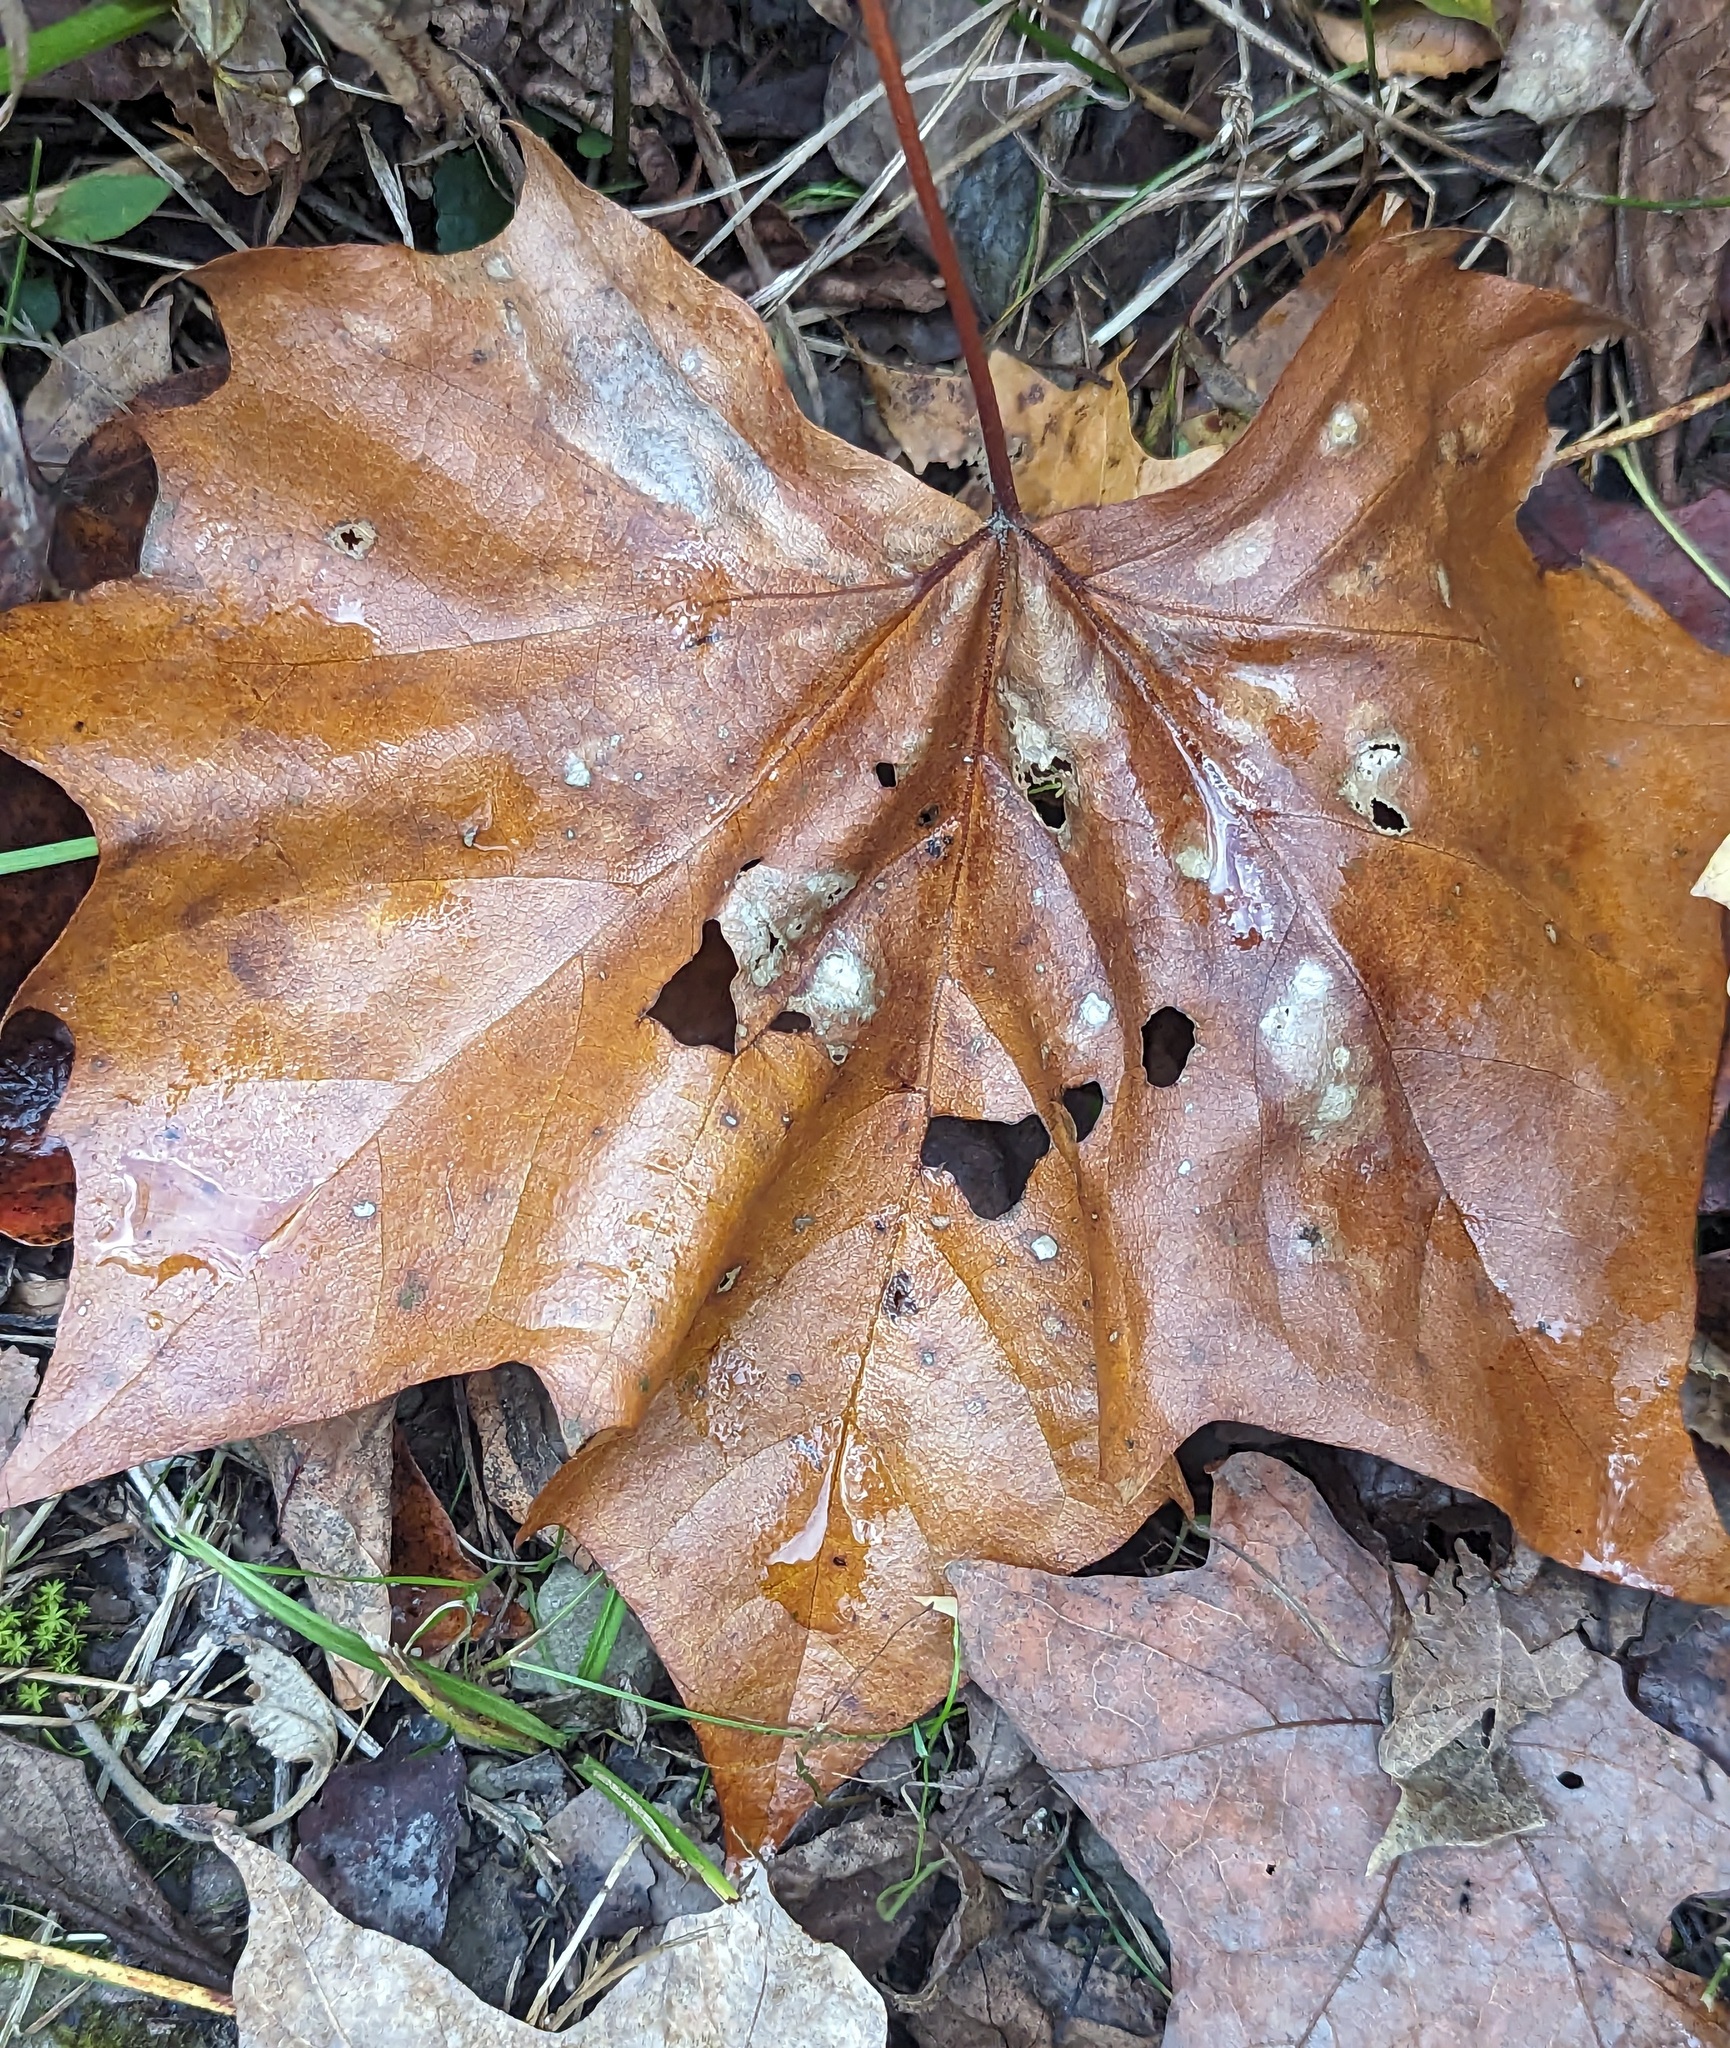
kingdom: Plantae
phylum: Tracheophyta
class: Magnoliopsida
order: Proteales
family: Platanaceae
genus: Platanus
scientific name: Platanus occidentalis
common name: American sycamore
